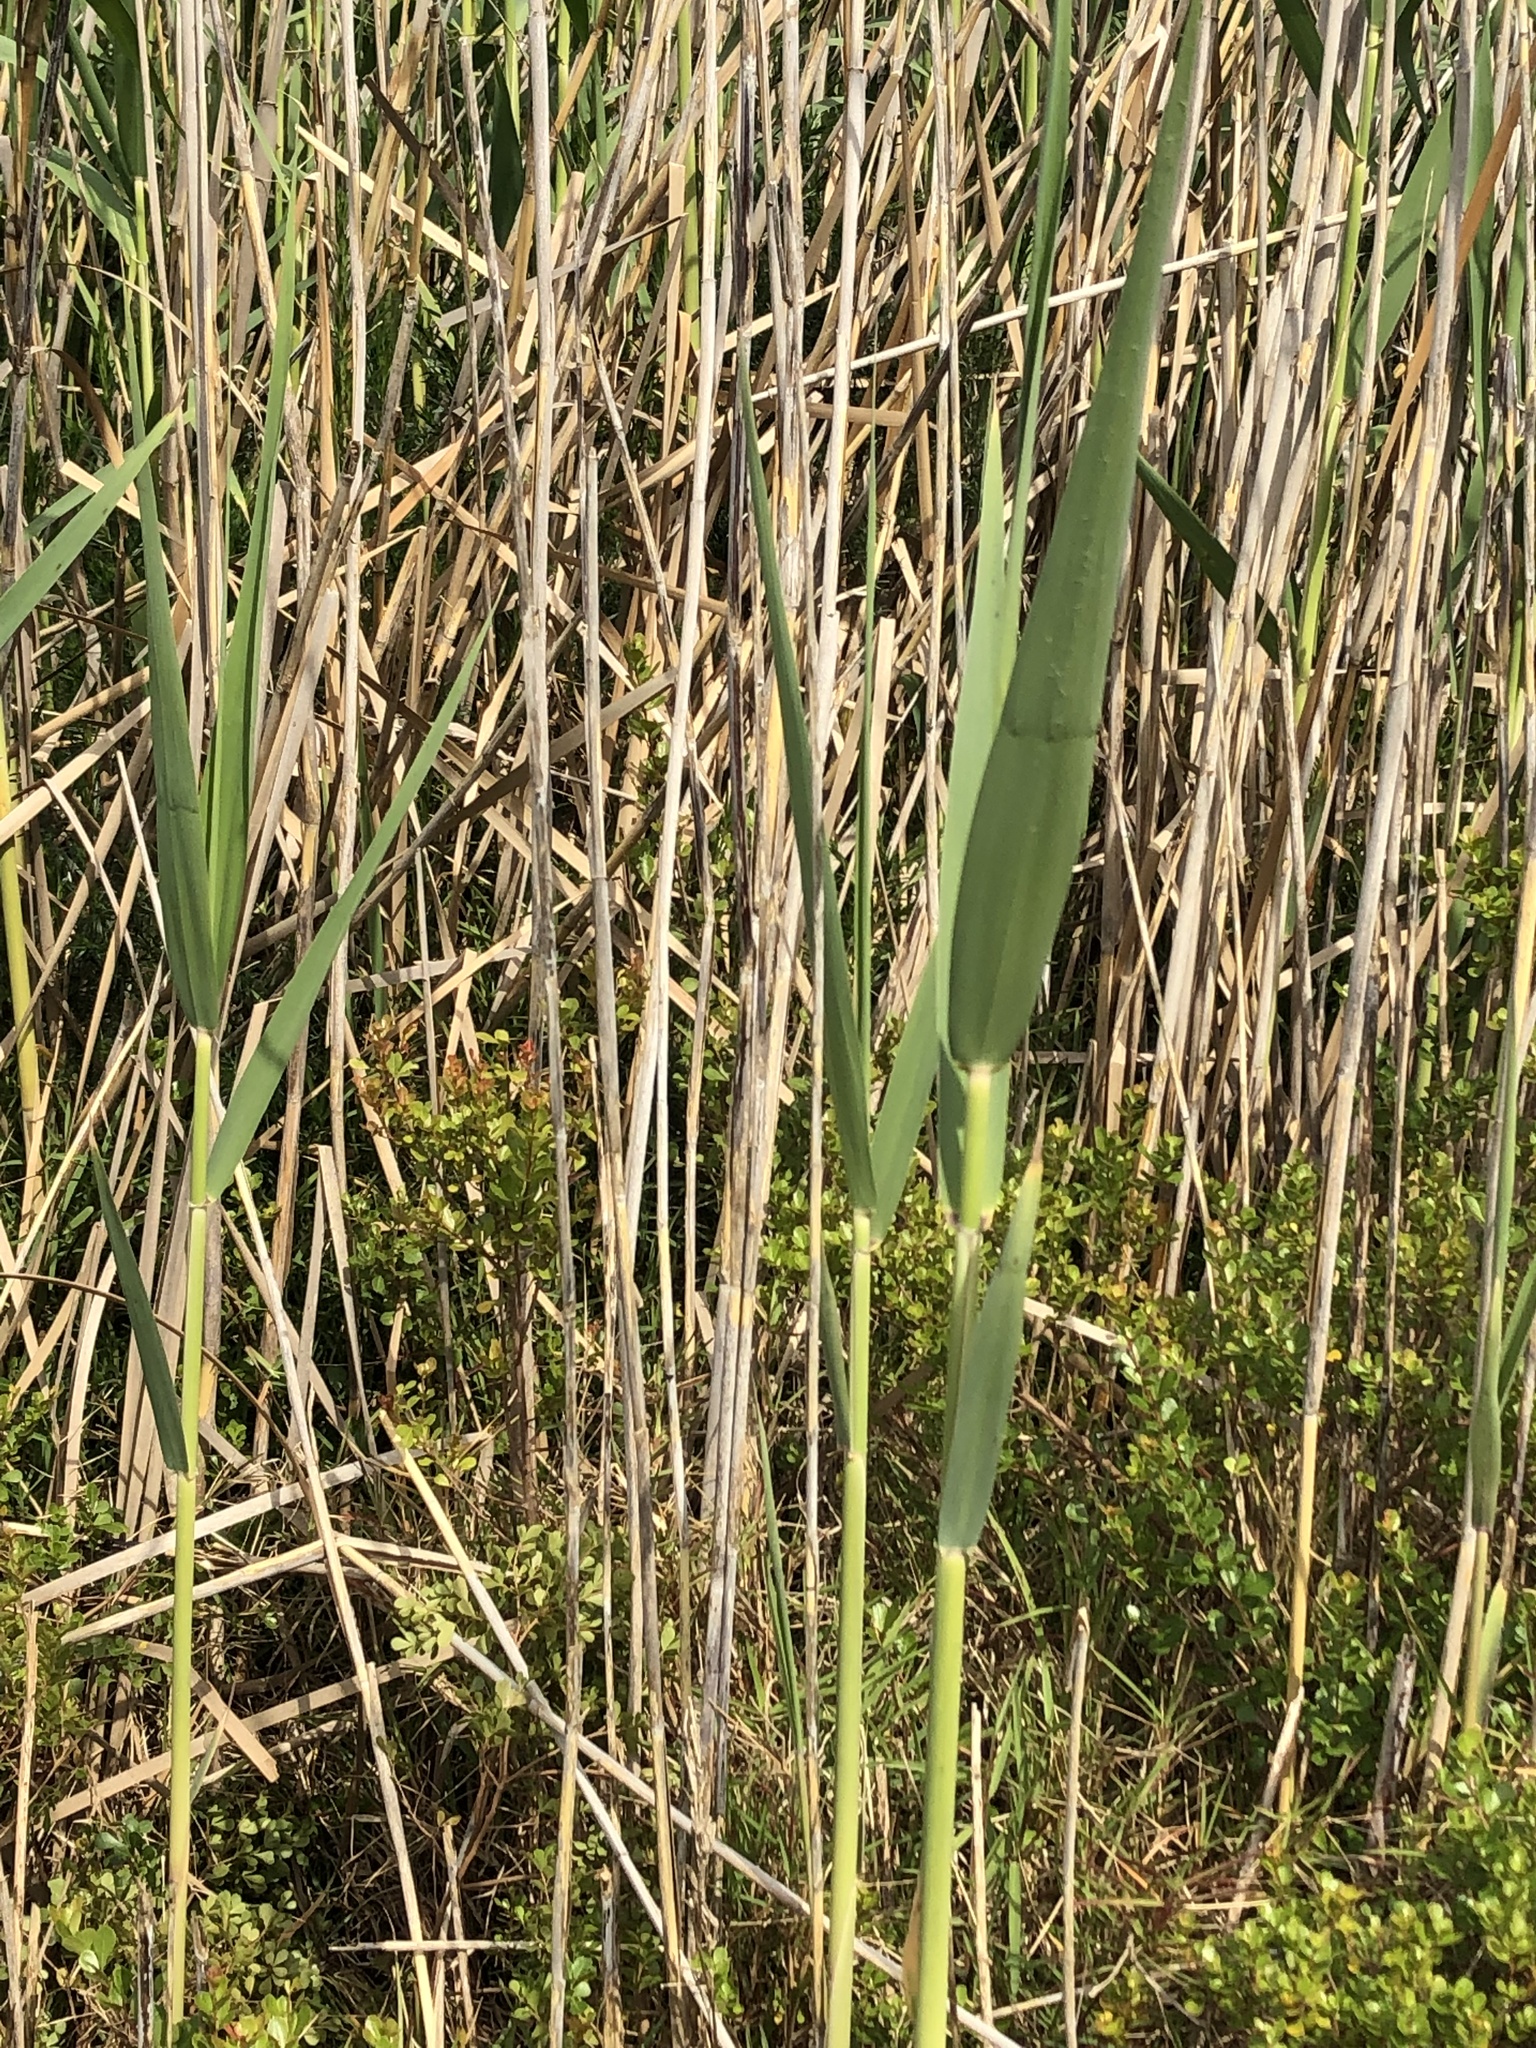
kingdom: Plantae
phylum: Tracheophyta
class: Liliopsida
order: Poales
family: Poaceae
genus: Phragmites
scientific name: Phragmites australis
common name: Common reed
